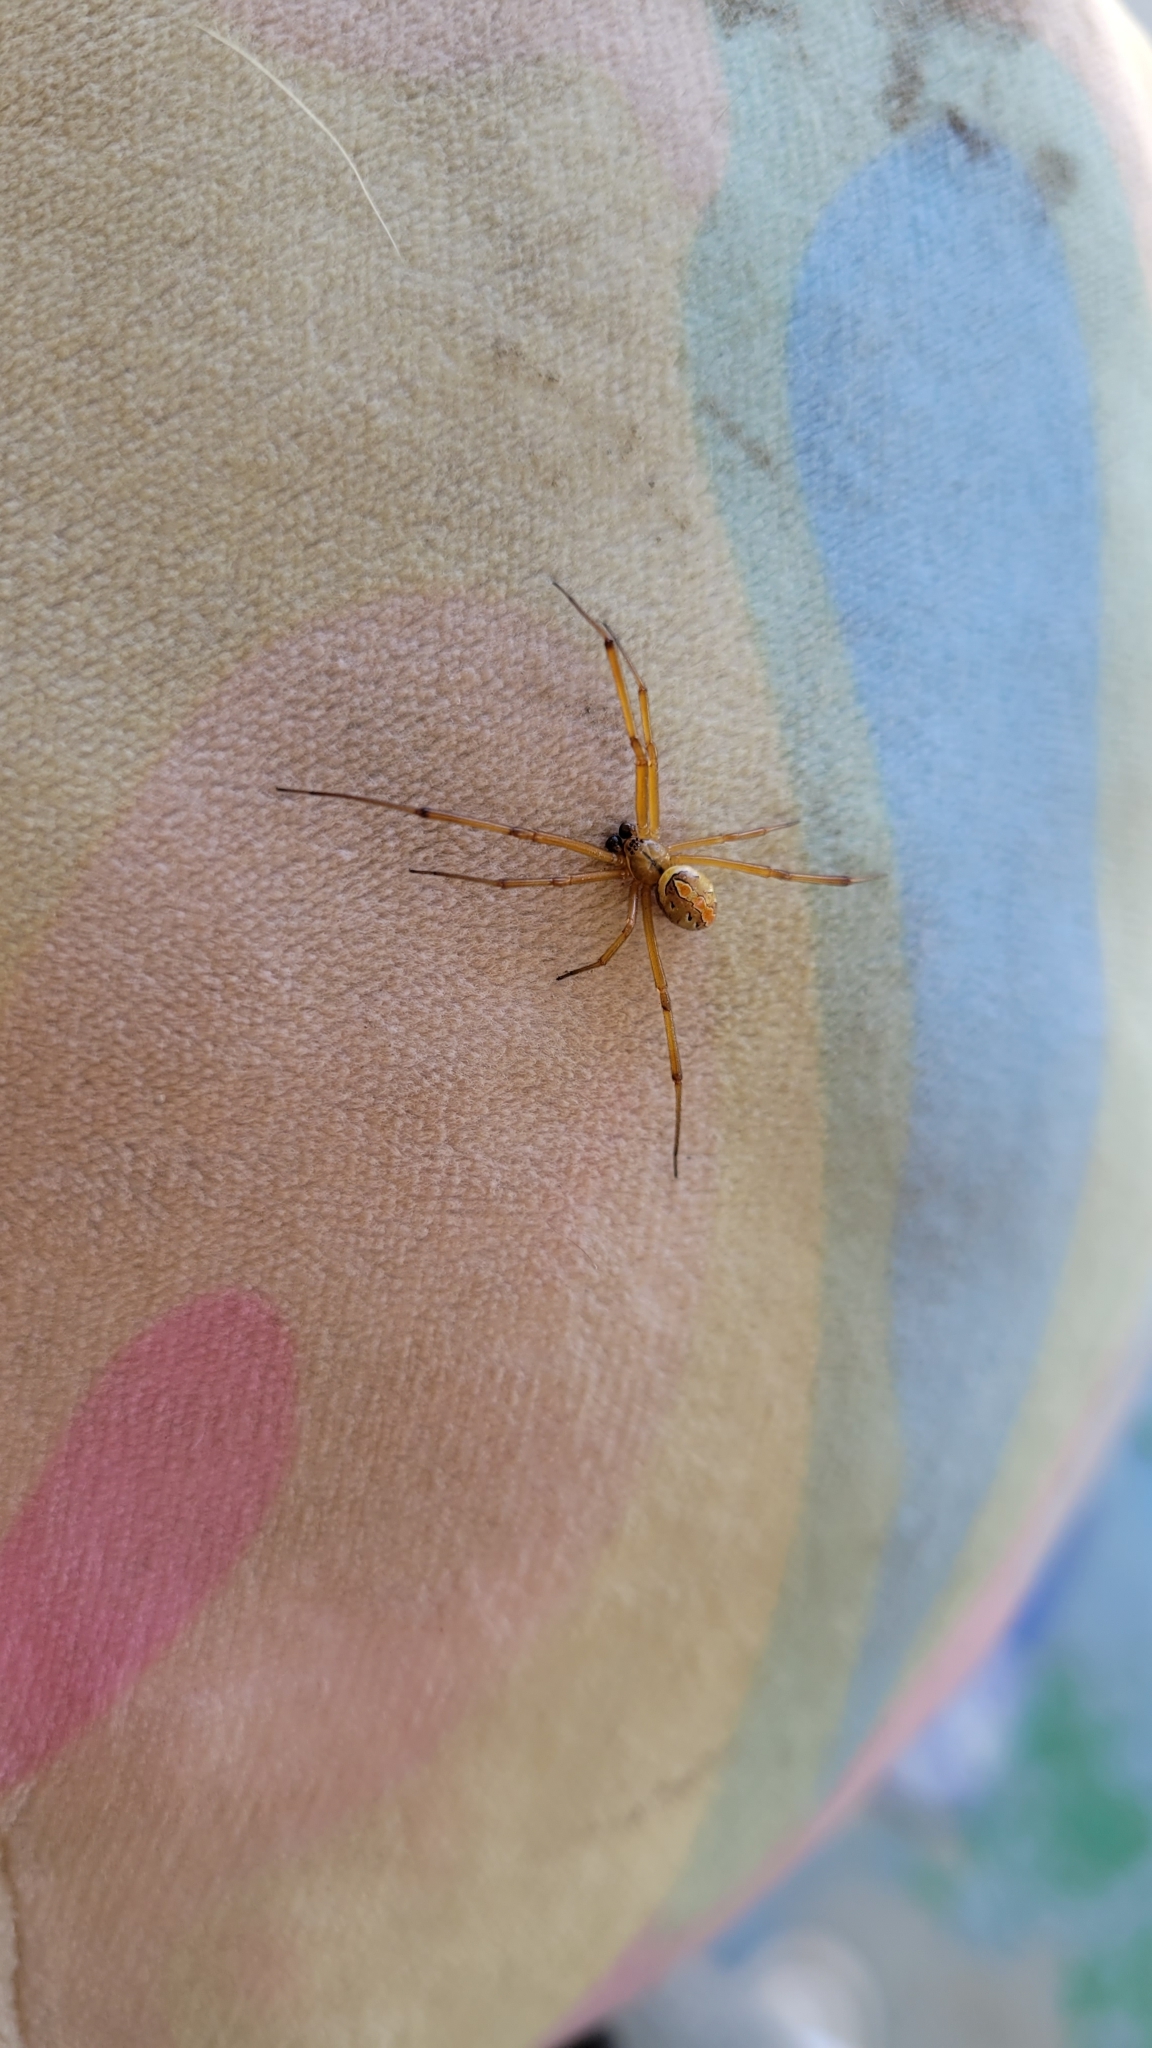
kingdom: Animalia
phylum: Arthropoda
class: Arachnida
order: Araneae
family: Theridiidae
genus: Latrodectus
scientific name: Latrodectus hesperus
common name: Western black widow
